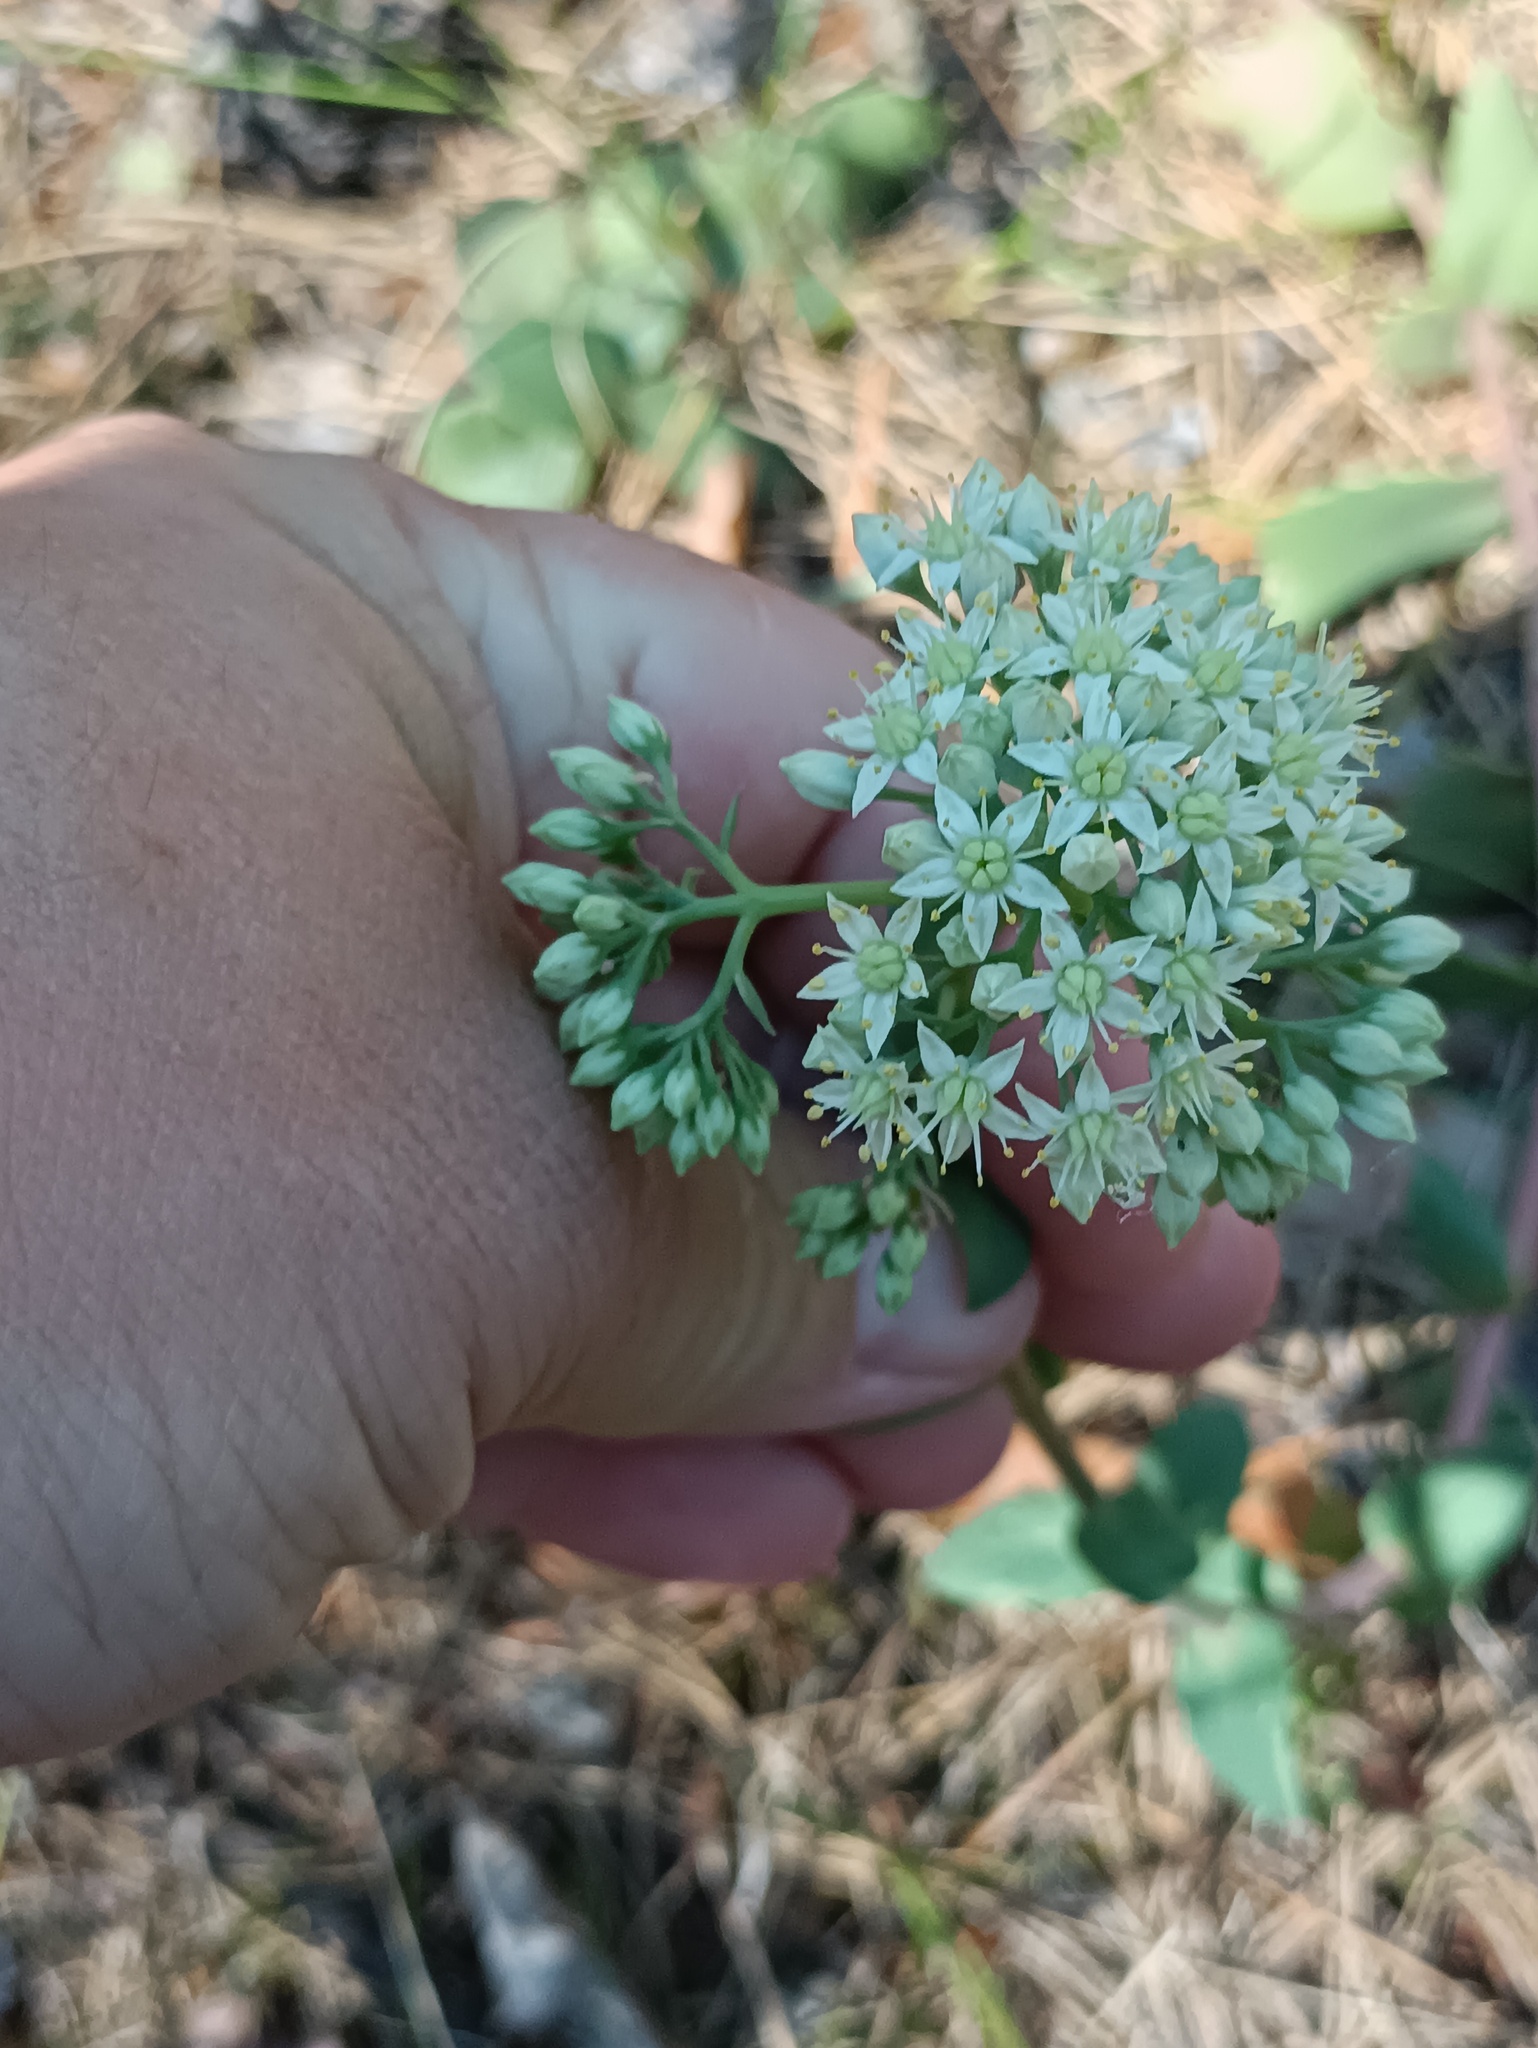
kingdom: Plantae
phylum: Tracheophyta
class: Magnoliopsida
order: Saxifragales
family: Crassulaceae
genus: Hylotelephium
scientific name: Hylotelephium maximum
